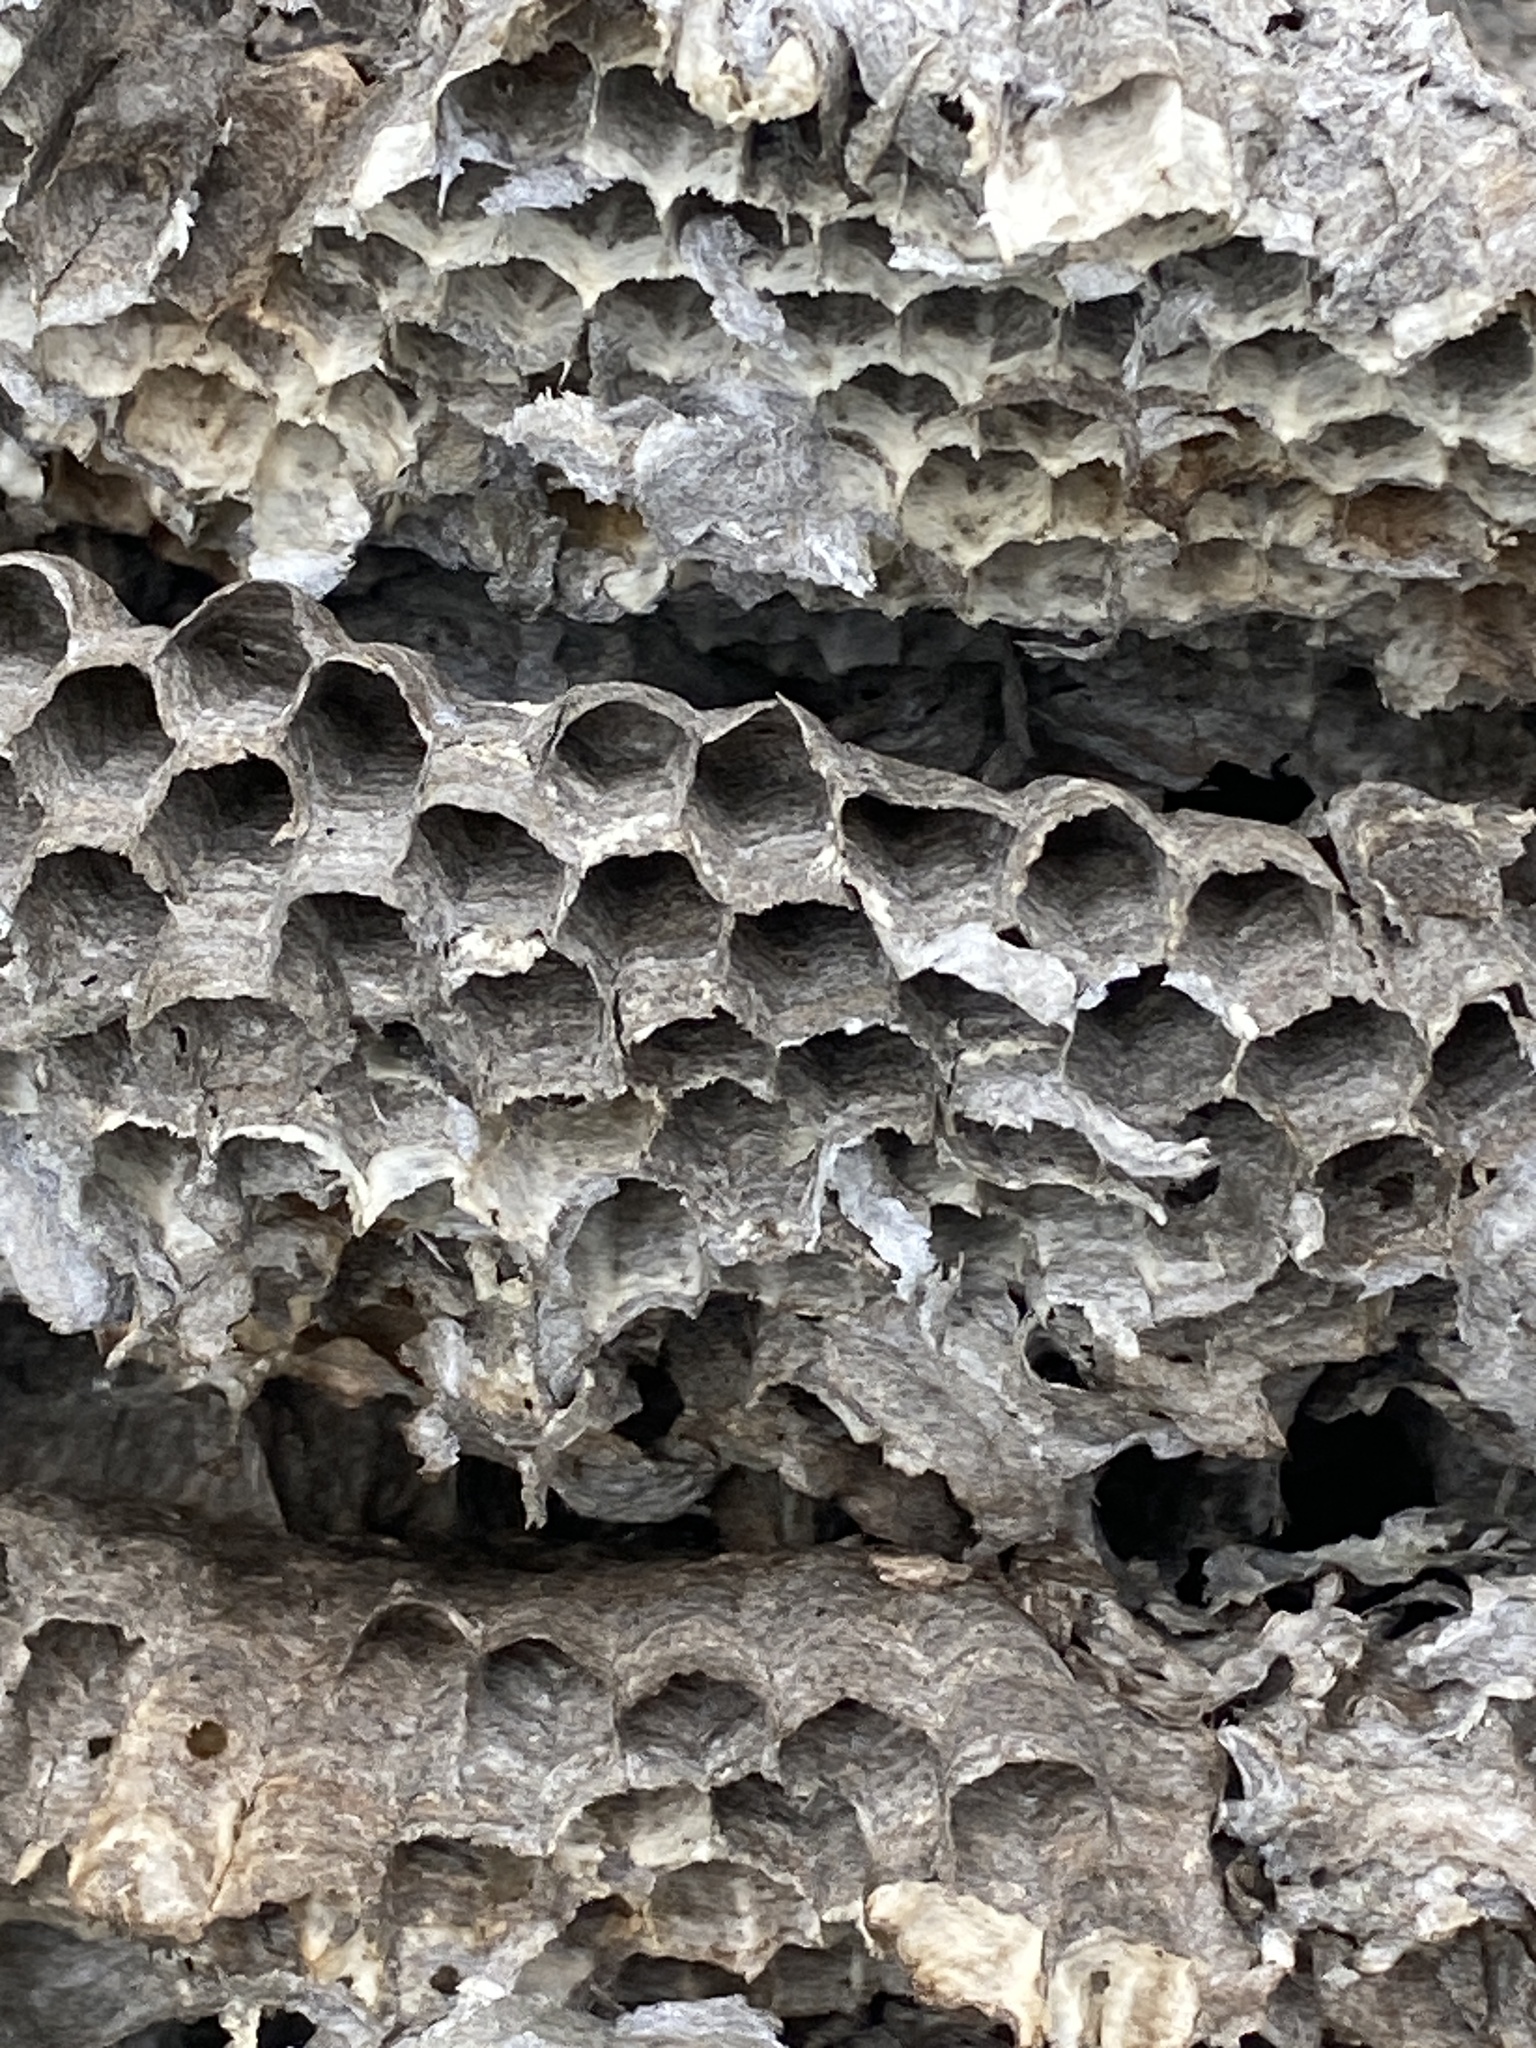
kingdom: Animalia
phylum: Arthropoda
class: Insecta
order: Hymenoptera
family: Vespidae
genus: Dolichovespula
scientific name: Dolichovespula maculata
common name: Bald-faced hornet
